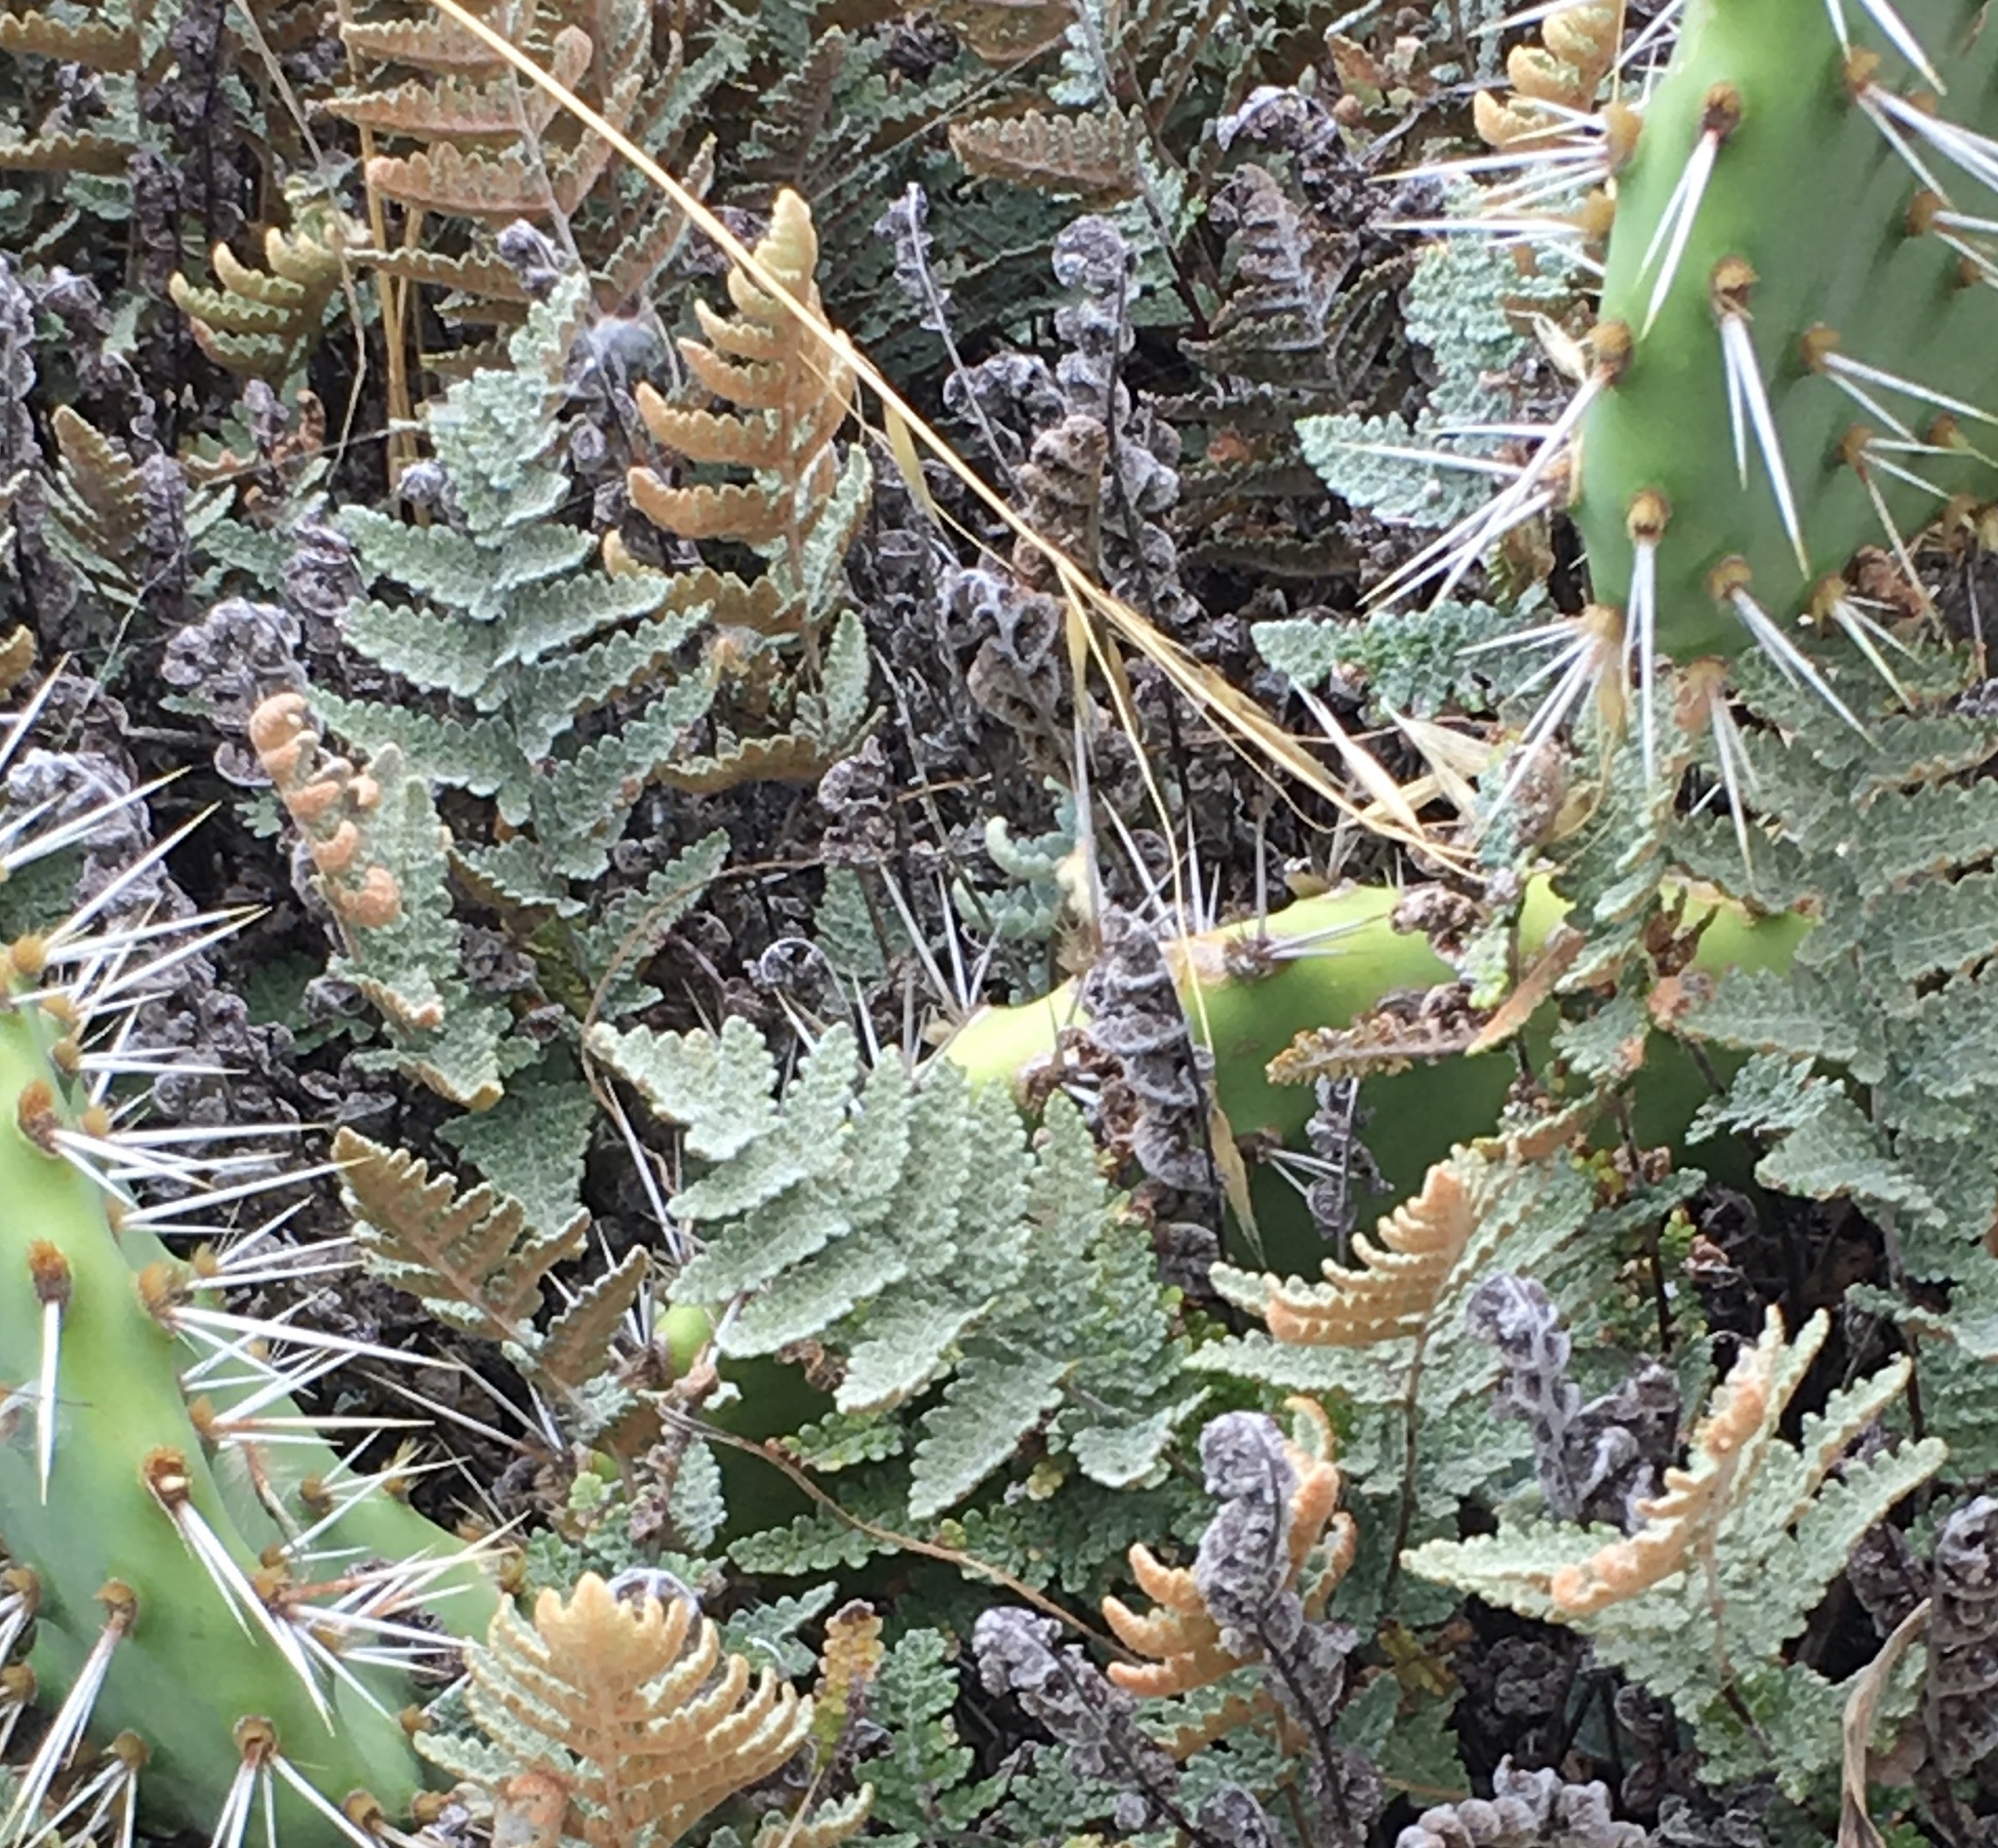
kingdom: Plantae
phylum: Tracheophyta
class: Polypodiopsida
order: Polypodiales
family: Pteridaceae
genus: Myriopteris
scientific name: Myriopteris newberryi
